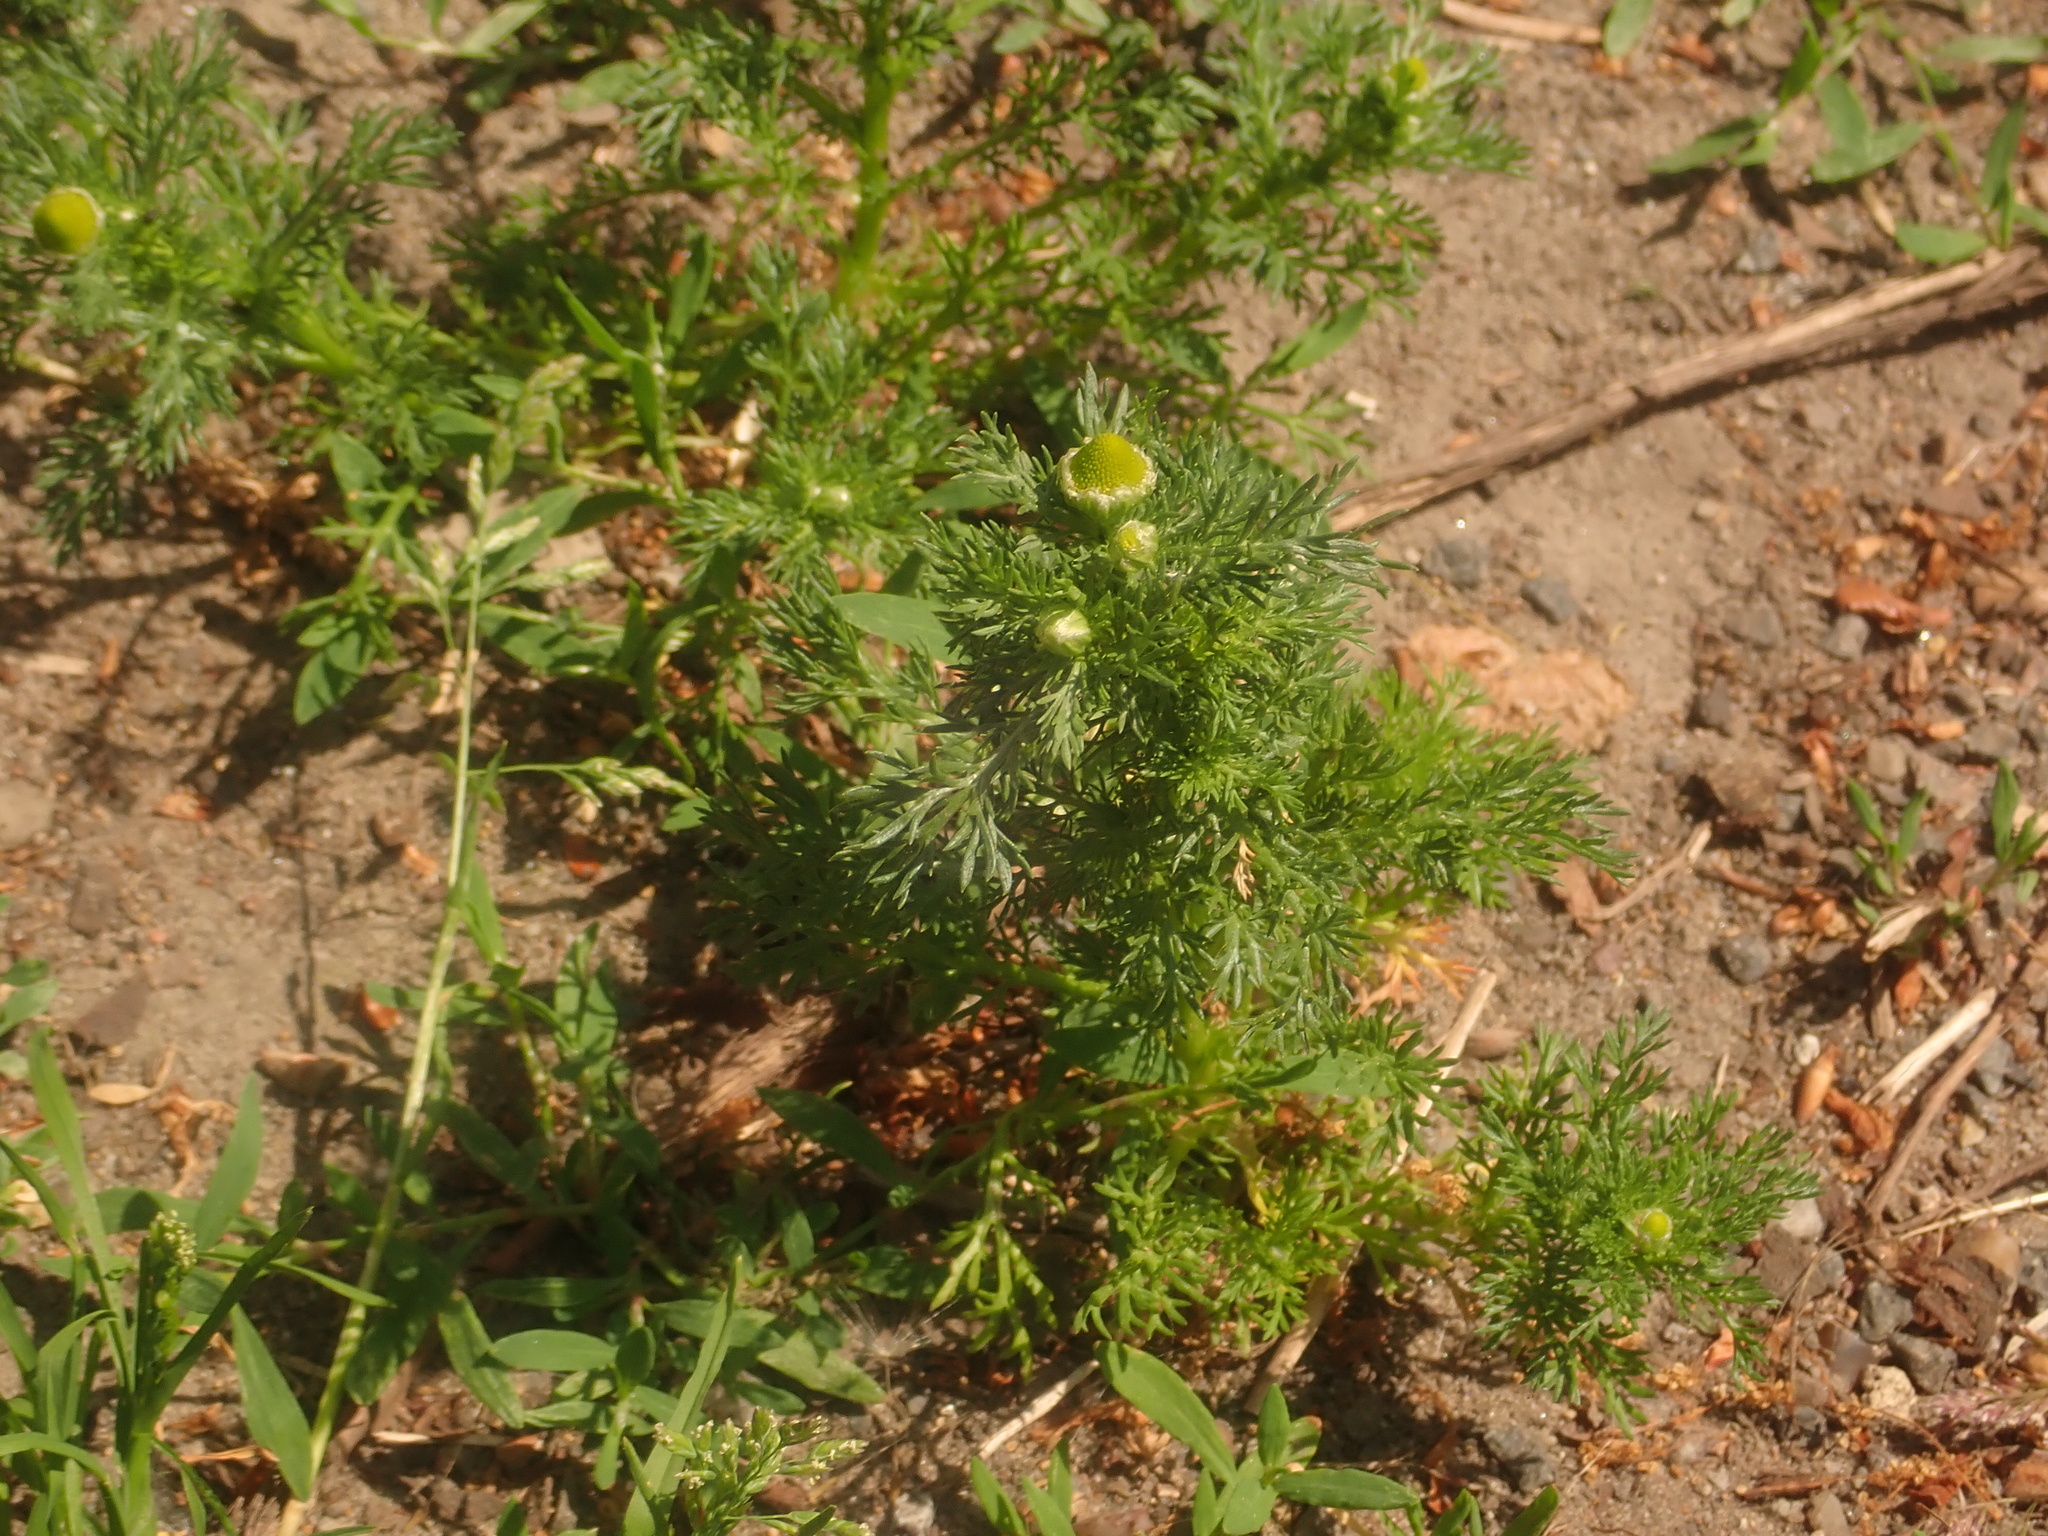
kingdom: Plantae
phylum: Tracheophyta
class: Magnoliopsida
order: Asterales
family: Asteraceae
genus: Matricaria
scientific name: Matricaria discoidea
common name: Disc mayweed
